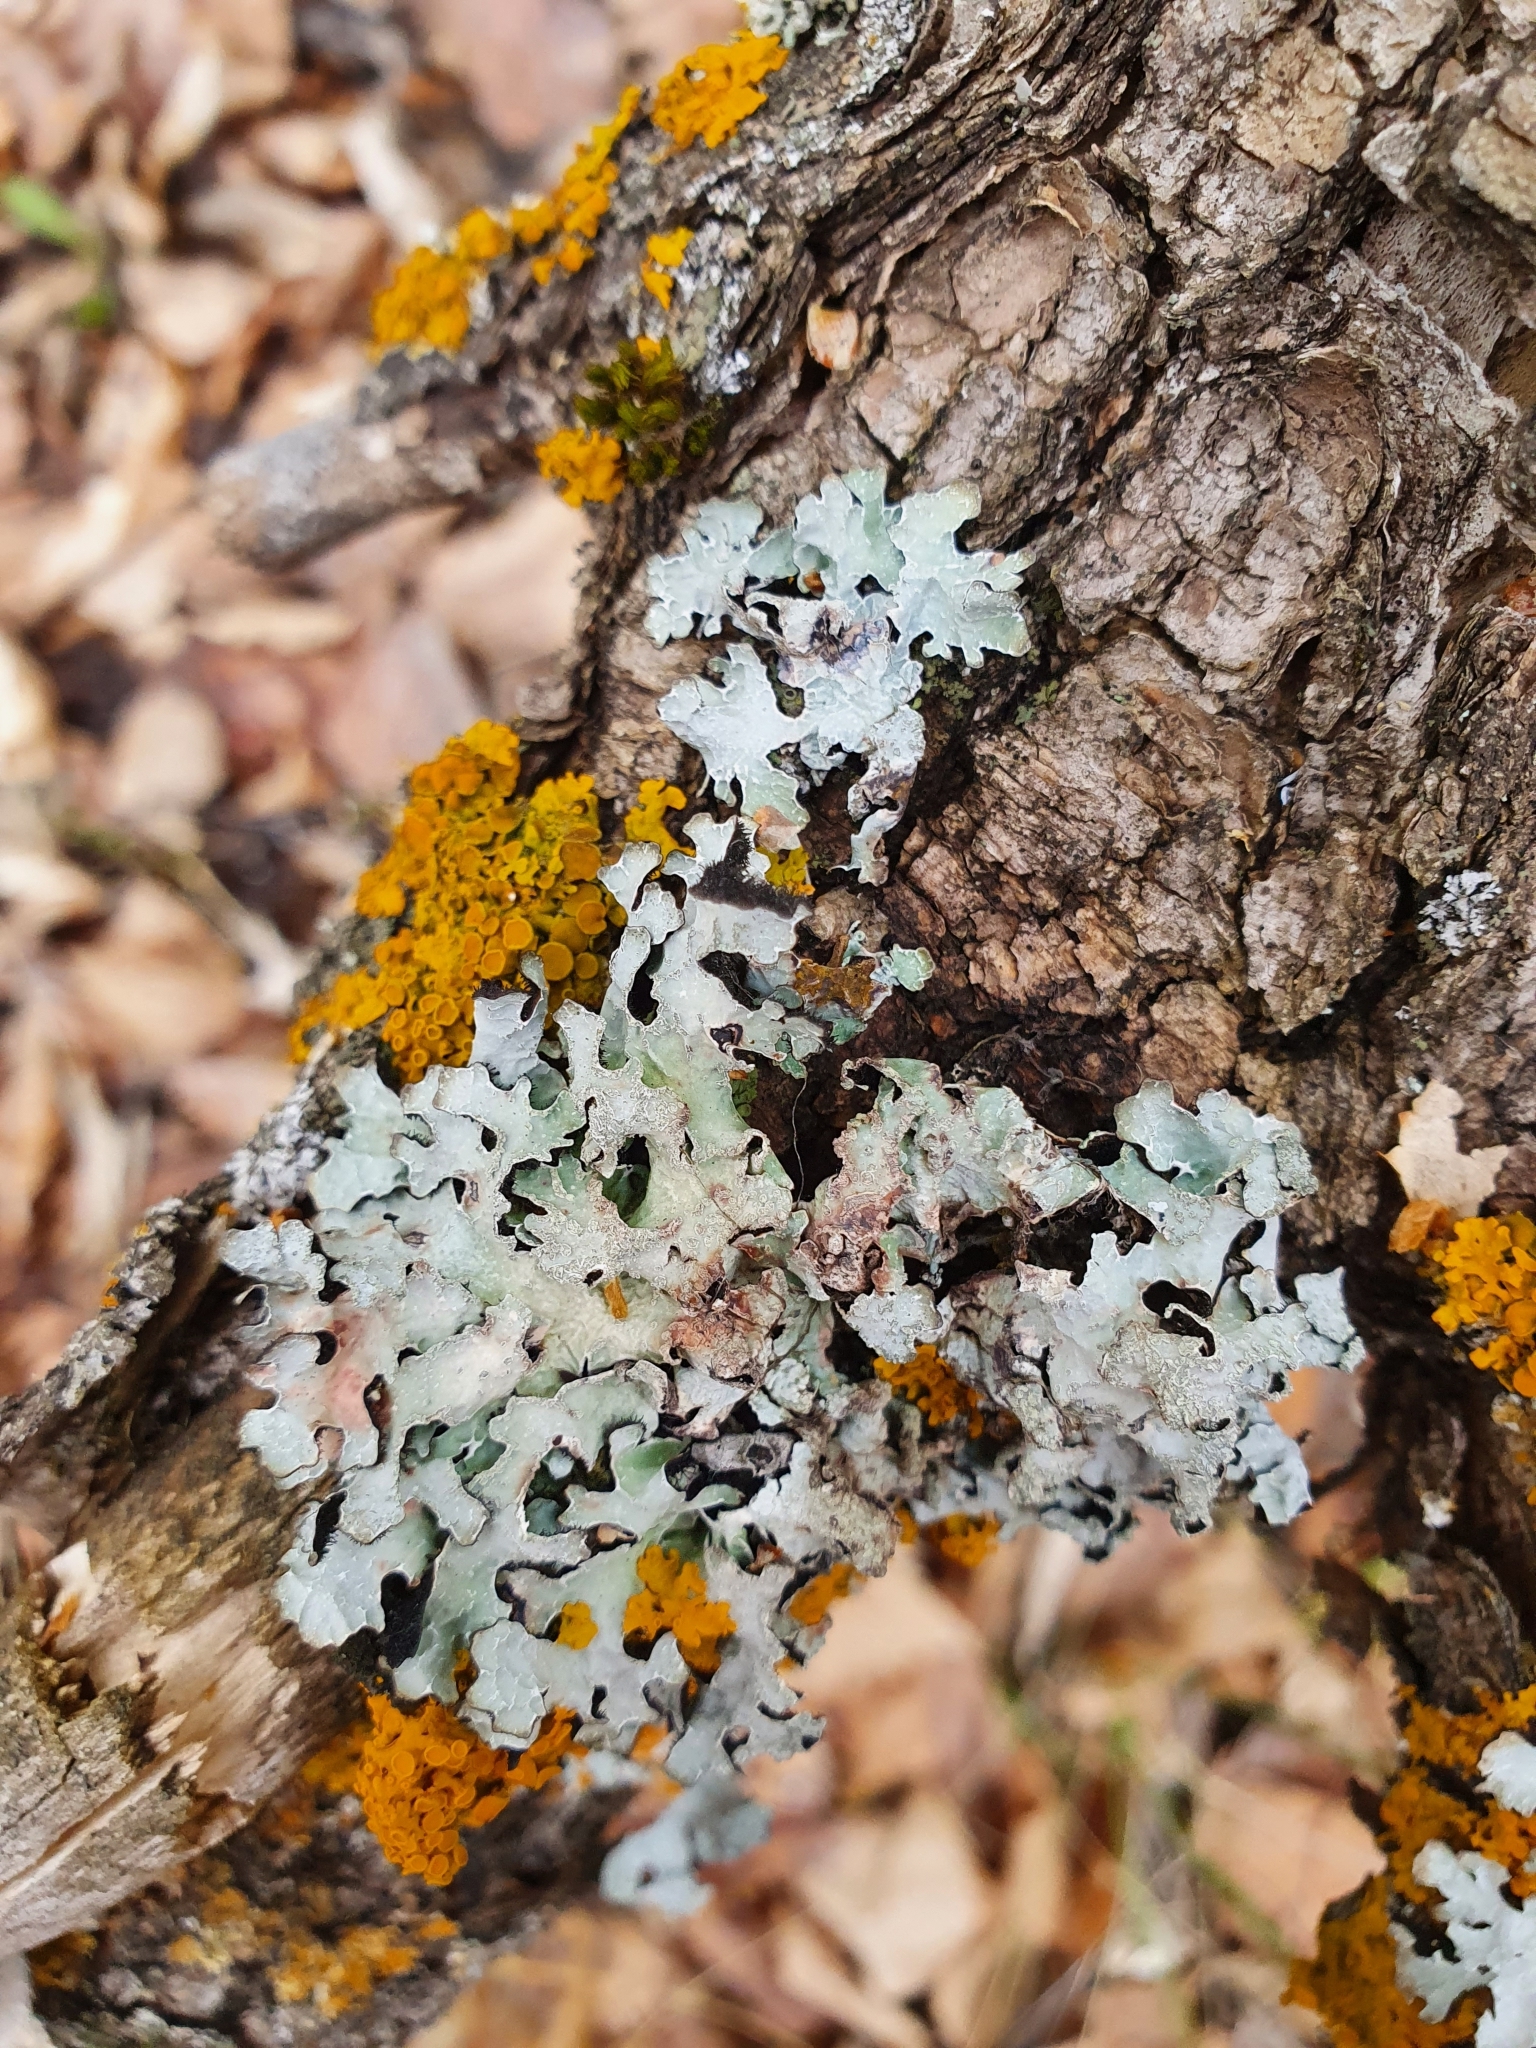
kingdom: Fungi
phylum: Ascomycota
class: Lecanoromycetes
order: Lecanorales
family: Parmeliaceae
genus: Parmelia
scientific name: Parmelia sulcata
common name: Netted shield lichen
